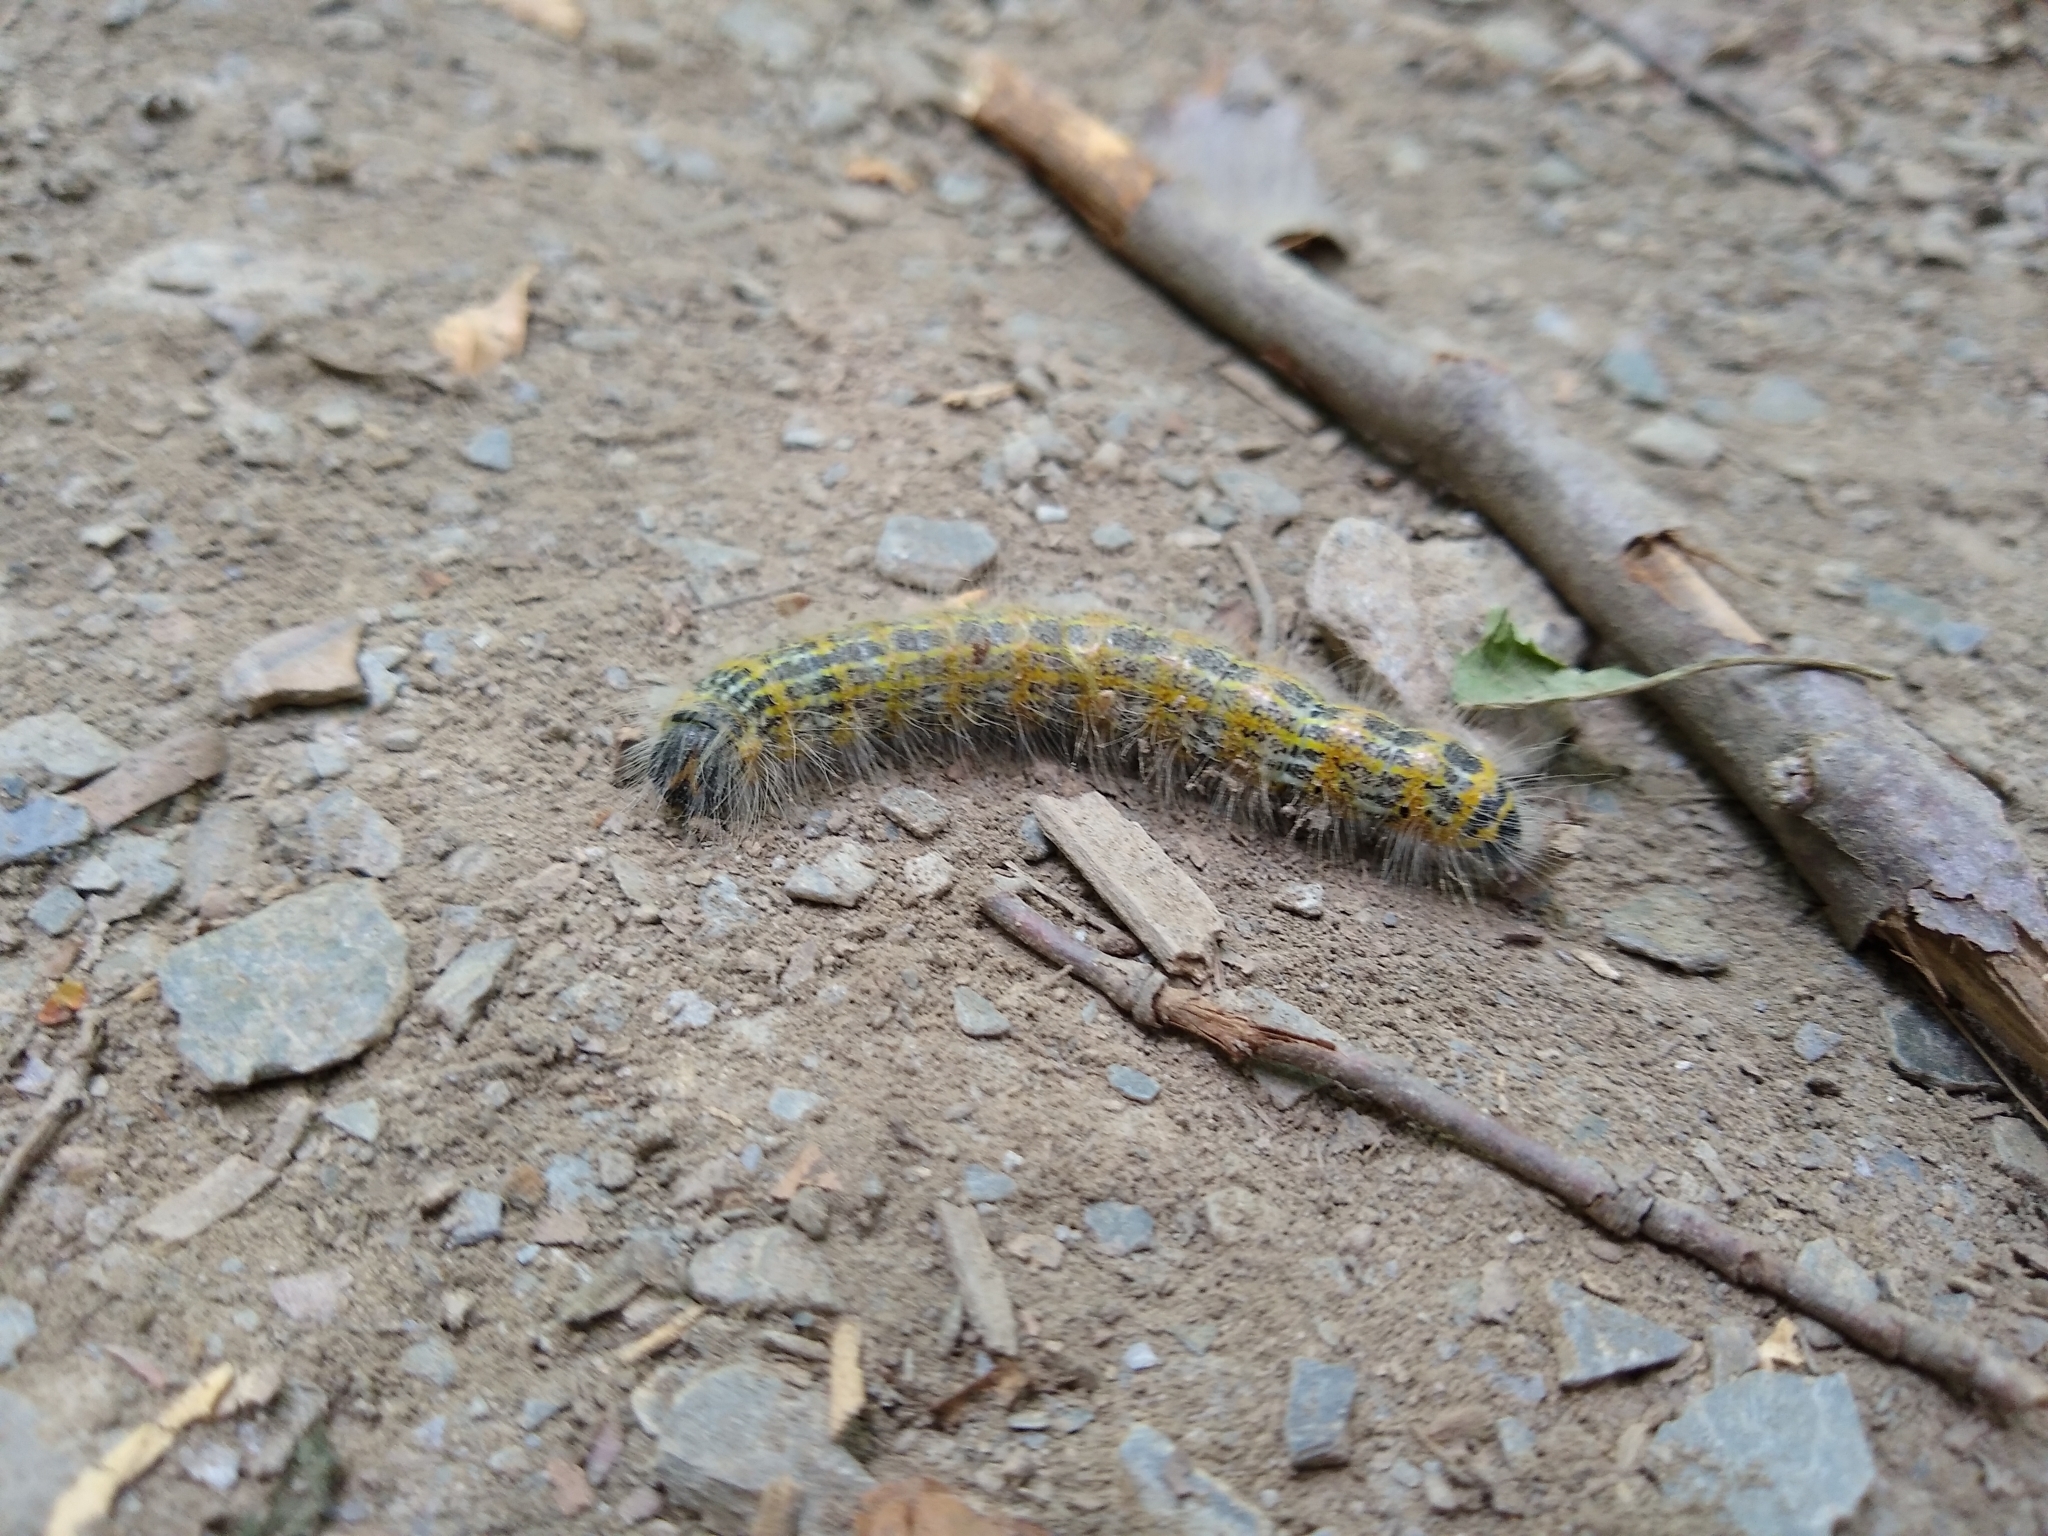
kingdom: Animalia
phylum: Arthropoda
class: Insecta
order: Lepidoptera
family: Notodontidae
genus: Phalera
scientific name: Phalera bucephala
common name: Buff-tip
